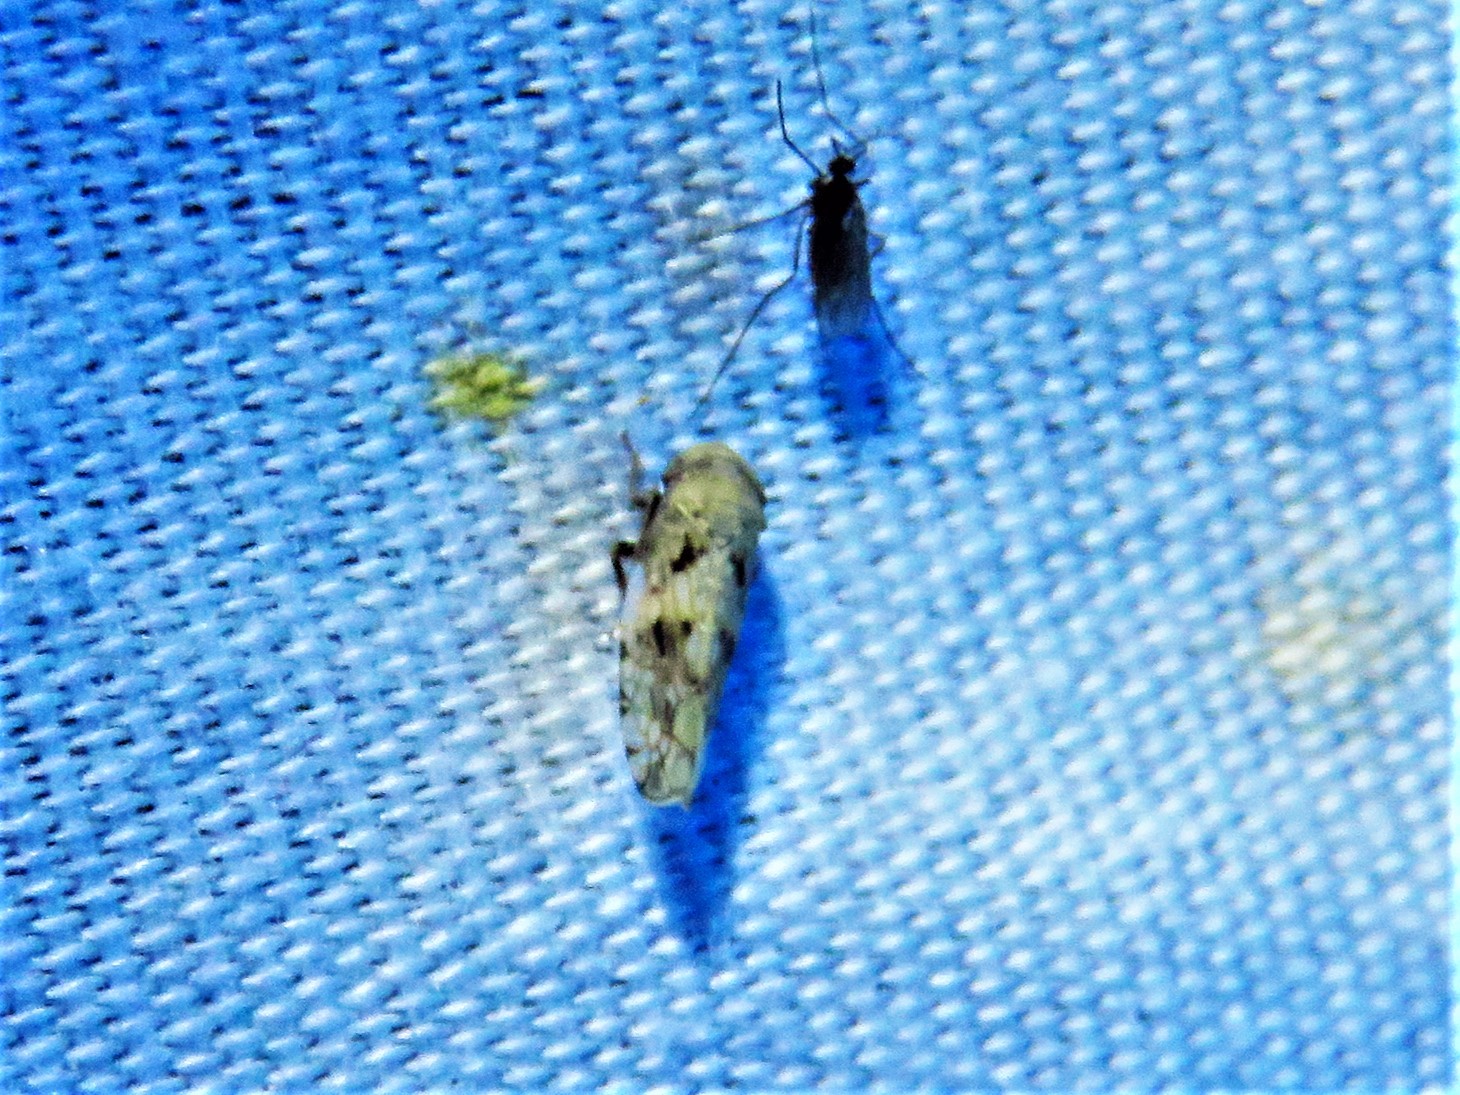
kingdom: Animalia
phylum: Arthropoda
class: Insecta
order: Hemiptera
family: Cicadellidae
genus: Menosoma
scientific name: Menosoma cinctum
